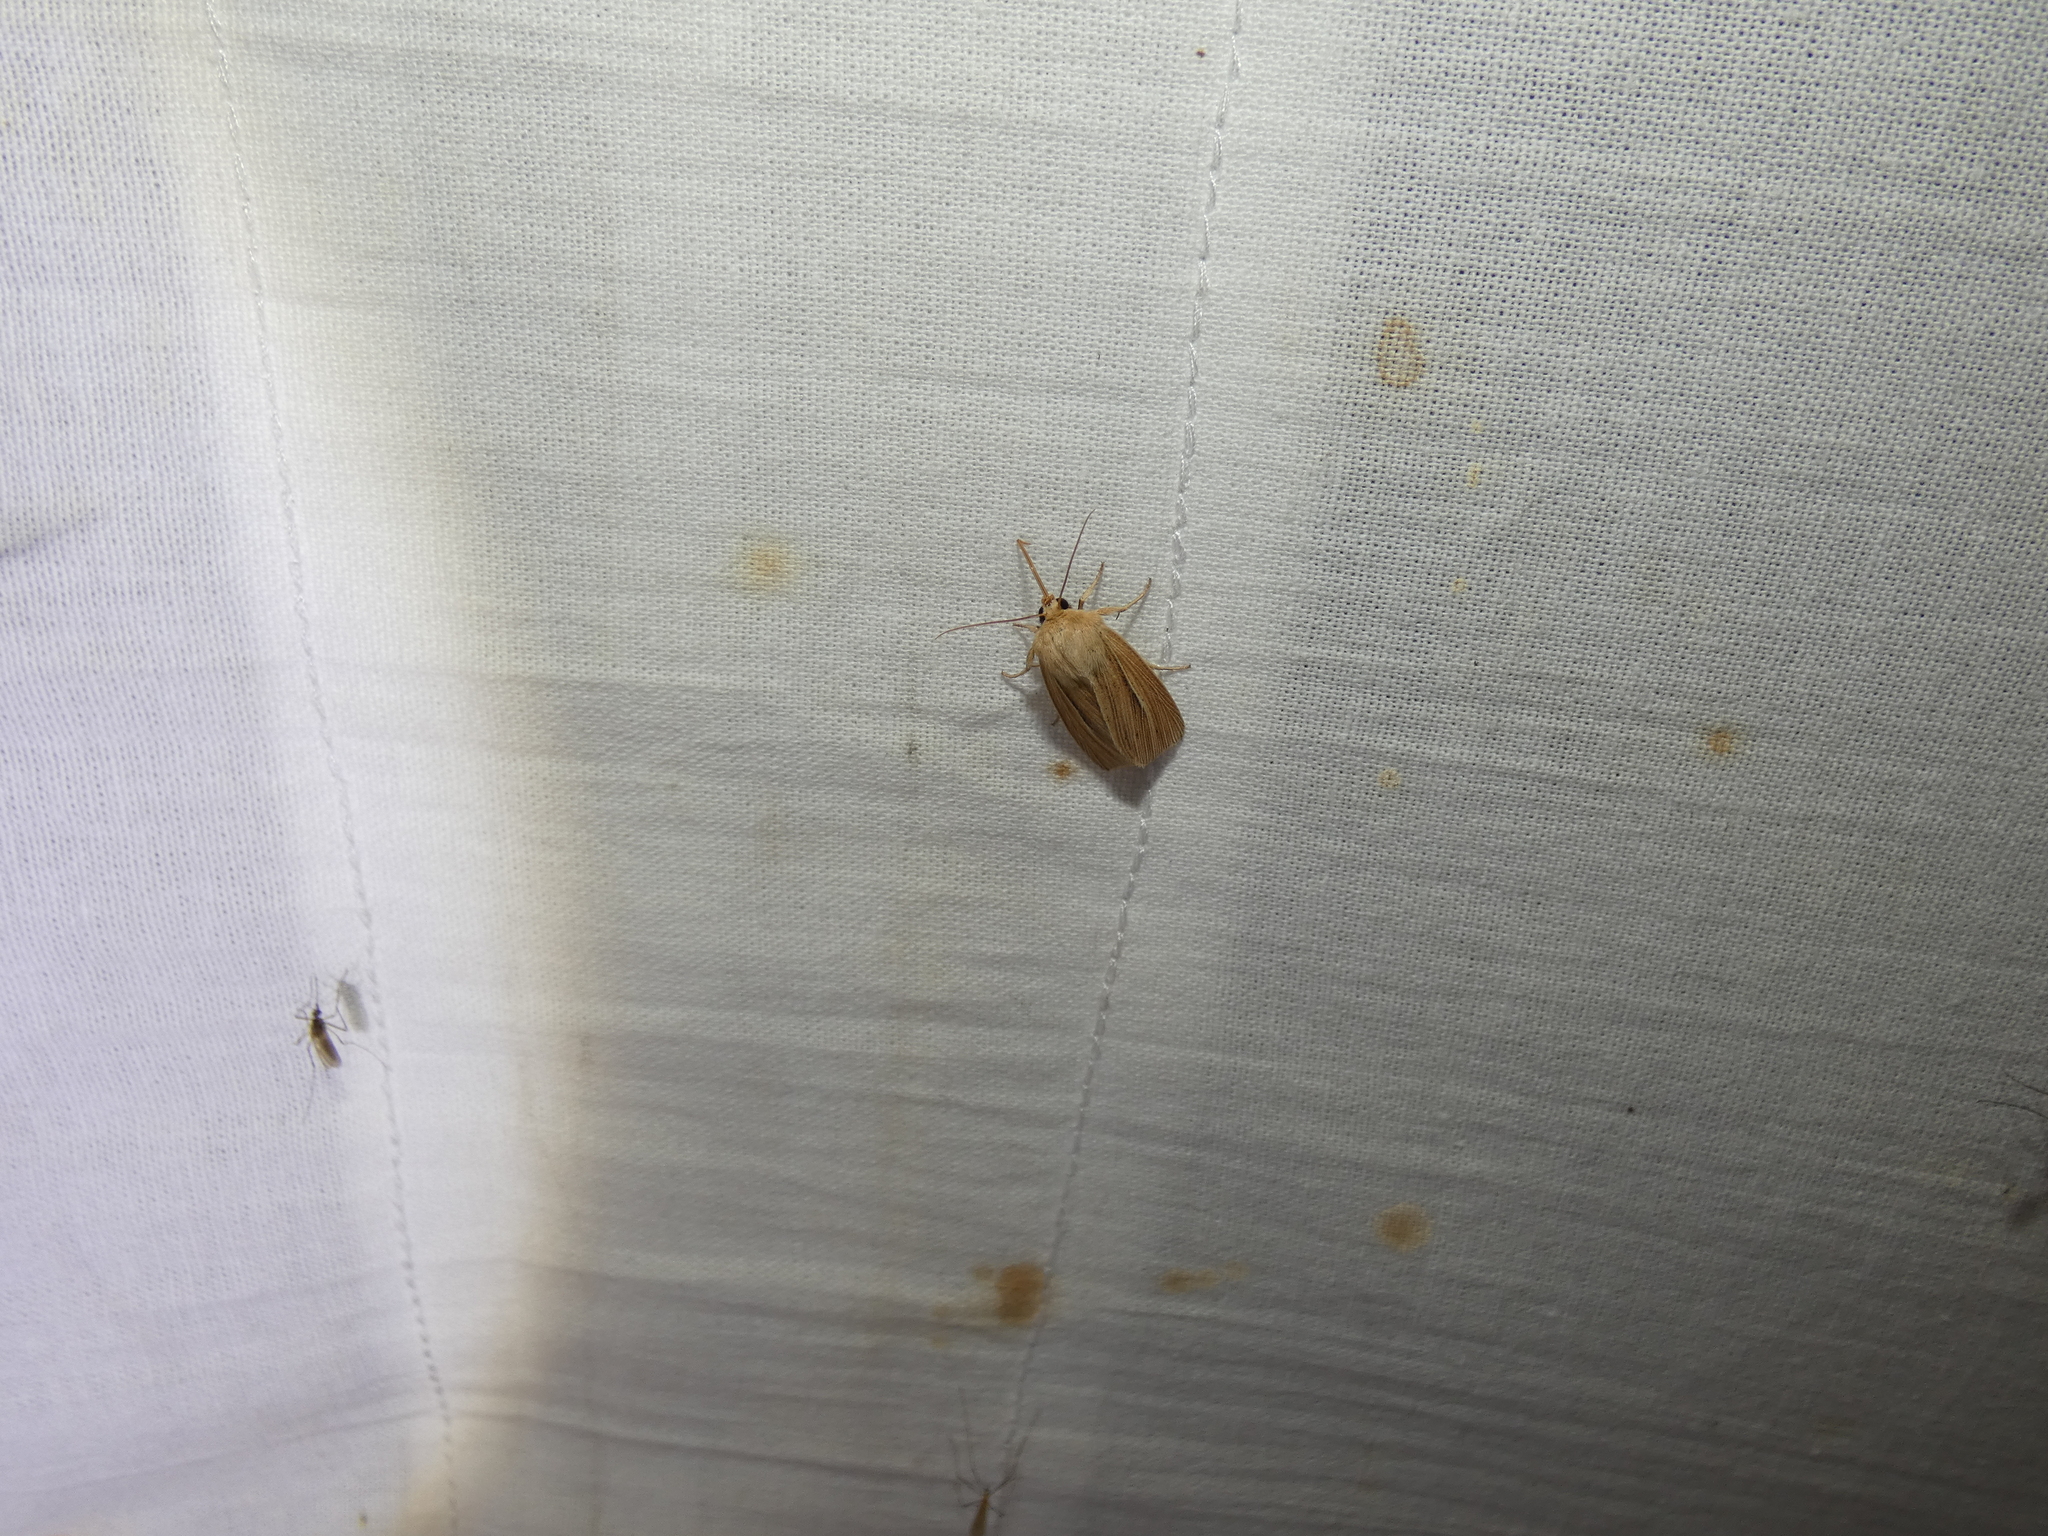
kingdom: Animalia
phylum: Arthropoda
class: Insecta
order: Lepidoptera
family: Noctuidae
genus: Mythimna
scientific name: Mythimna impura
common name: Smoky wainscot
